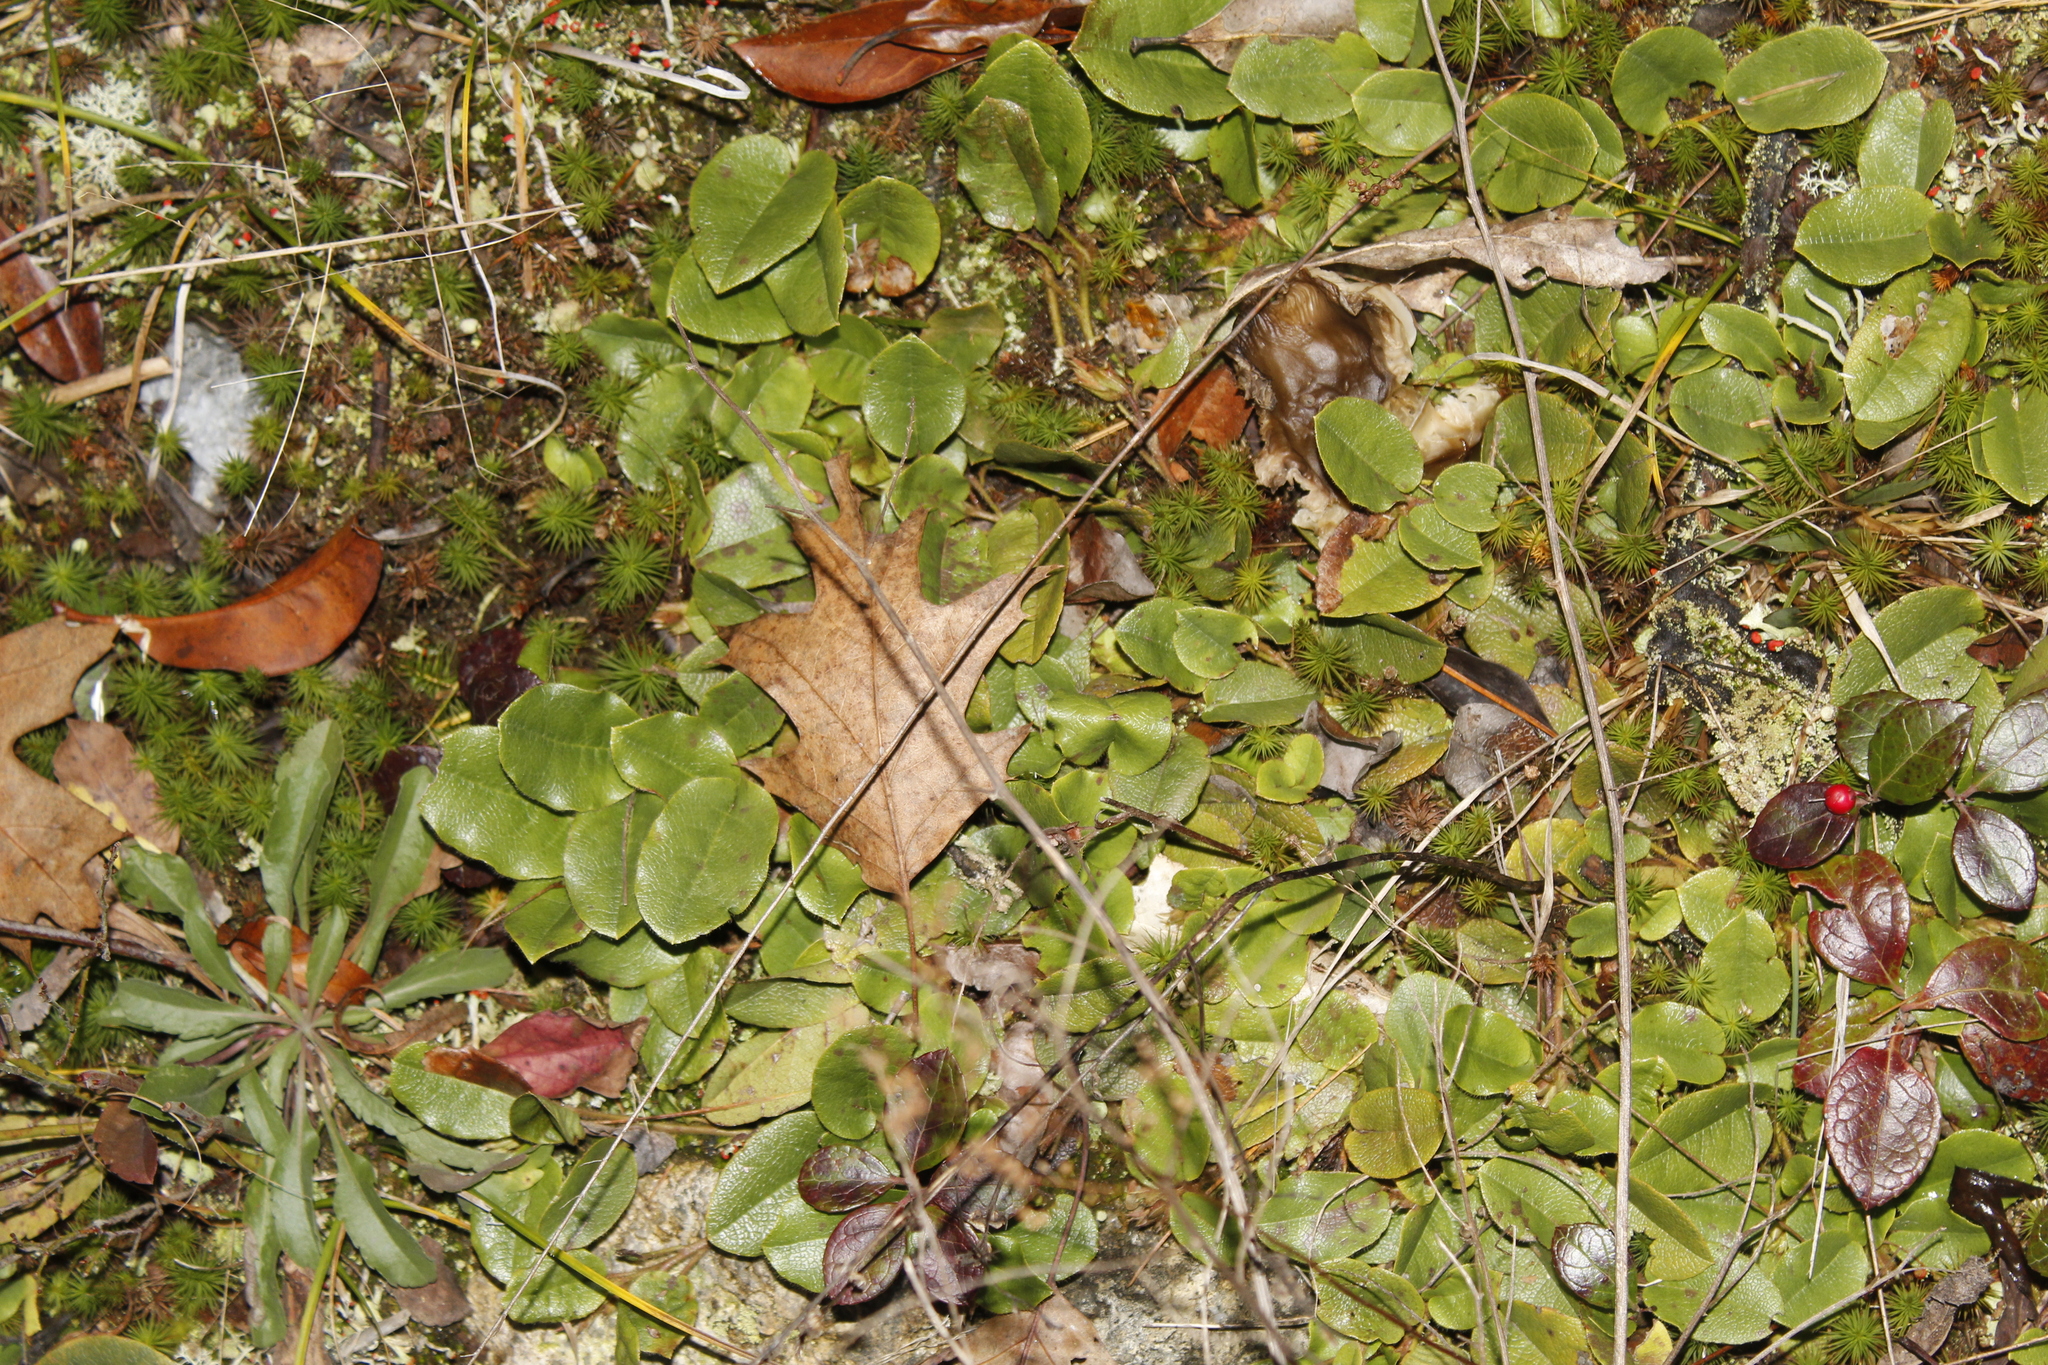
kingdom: Plantae
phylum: Tracheophyta
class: Magnoliopsida
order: Ericales
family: Ericaceae
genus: Epigaea
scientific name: Epigaea repens
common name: Gravelroot
